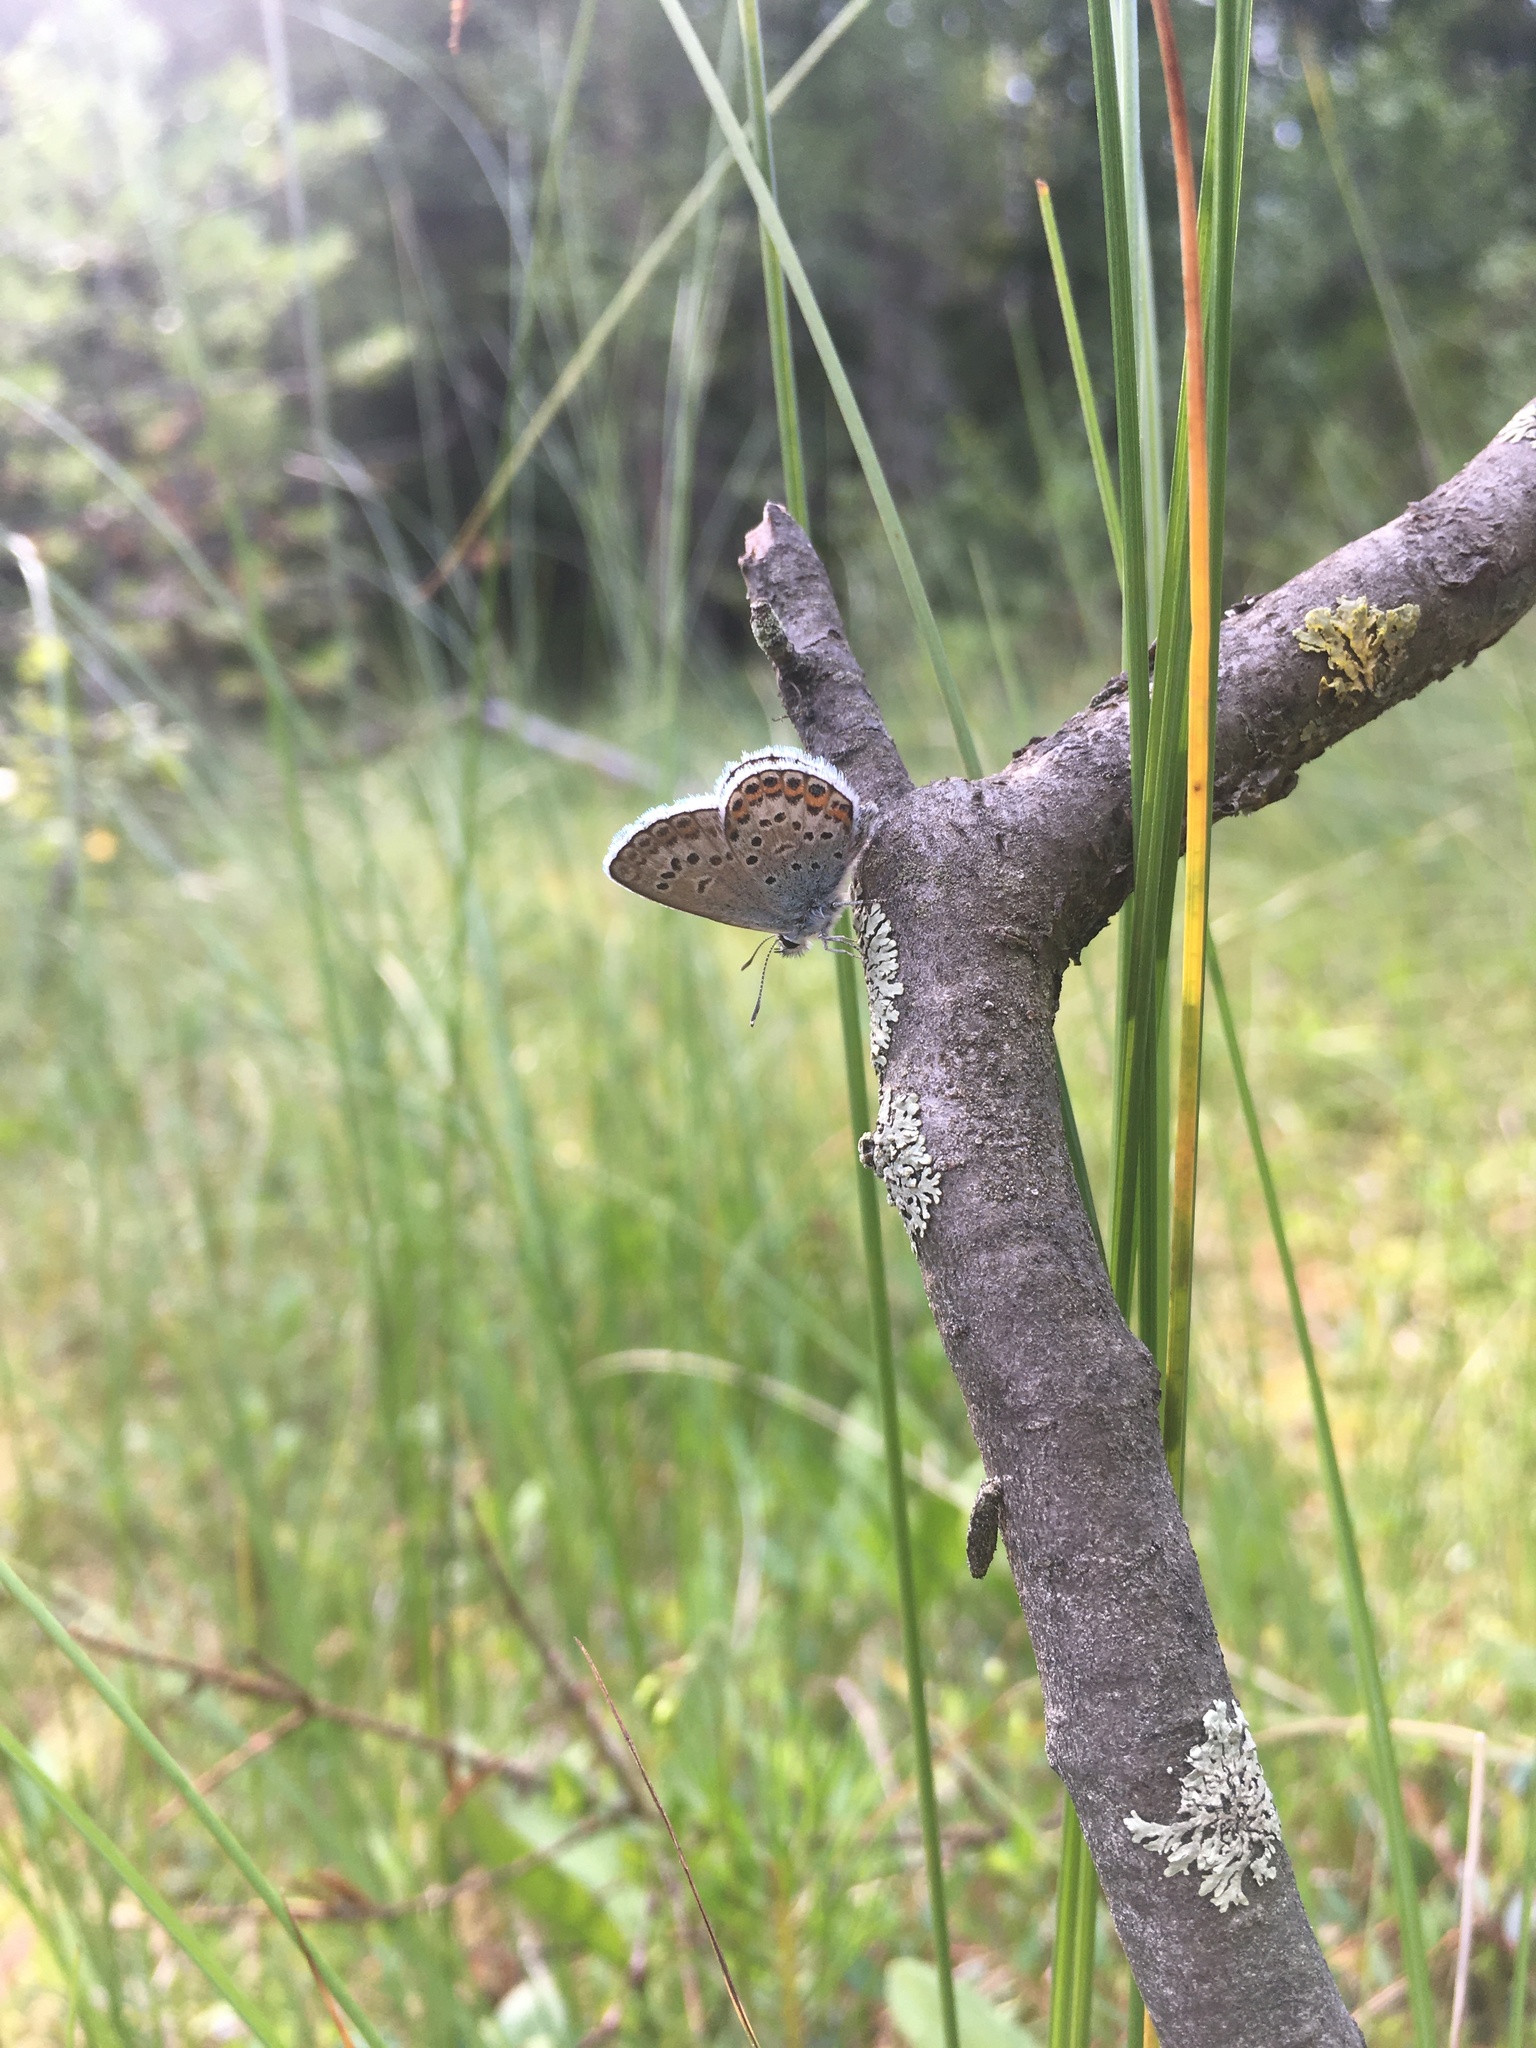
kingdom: Animalia
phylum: Arthropoda
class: Insecta
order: Lepidoptera
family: Lycaenidae
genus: Plebejus
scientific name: Plebejus argus
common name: Silver-studded blue
